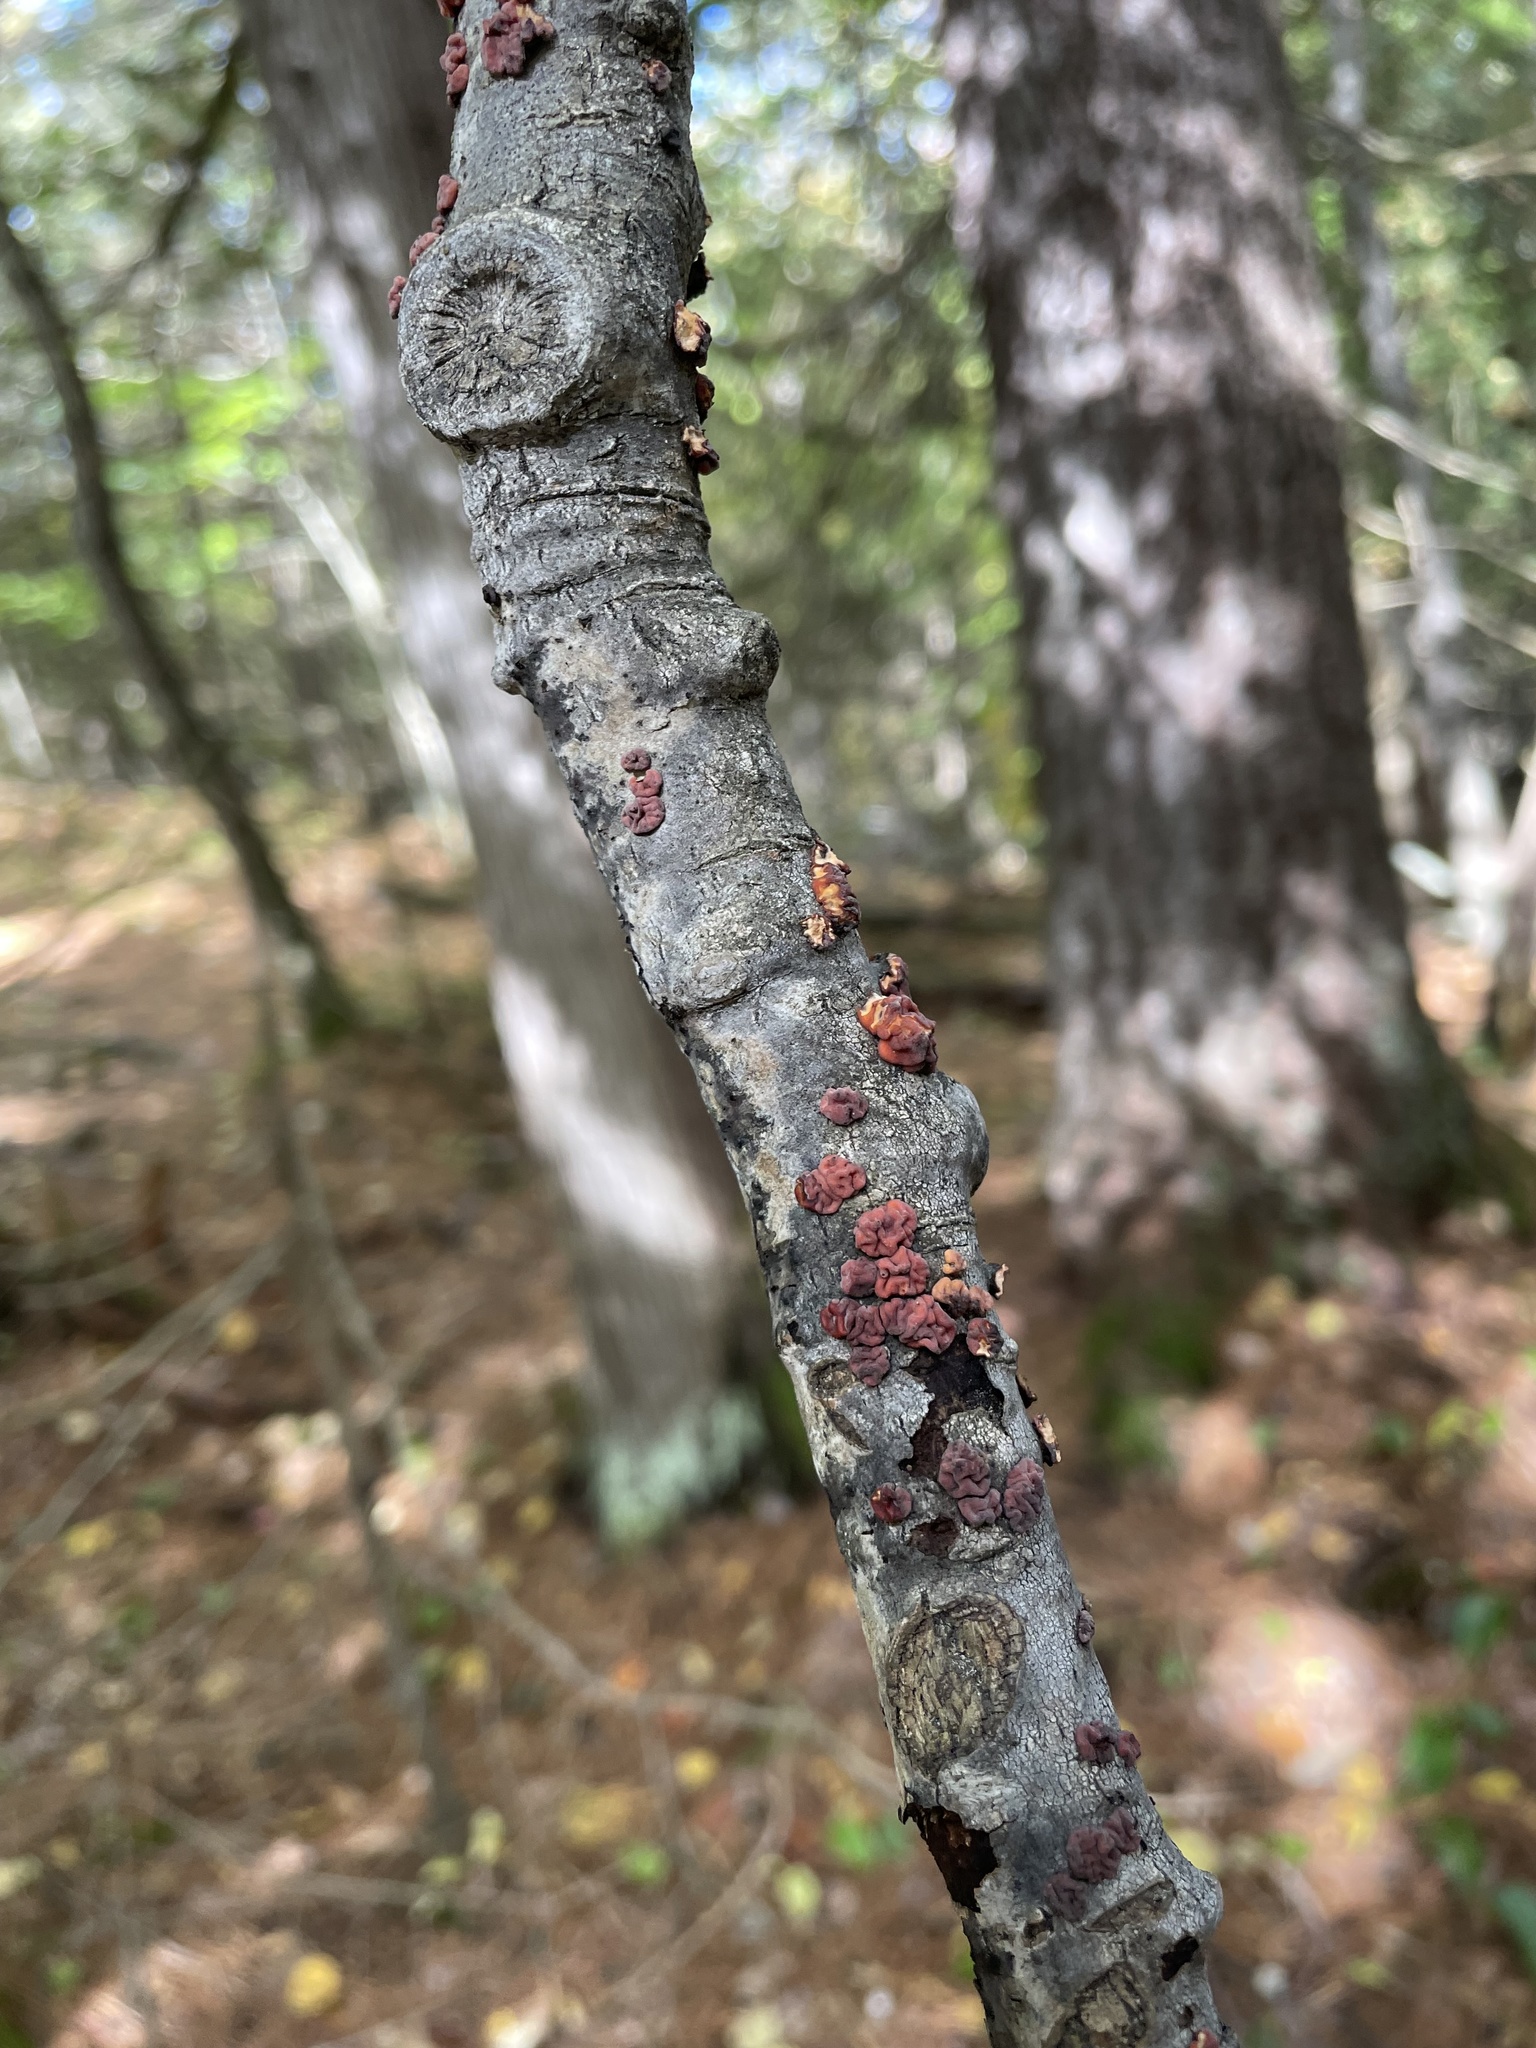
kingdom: Fungi
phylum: Basidiomycota
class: Agaricomycetes
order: Russulales
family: Peniophoraceae
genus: Peniophora
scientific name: Peniophora rufa
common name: Red tree brain fungus
